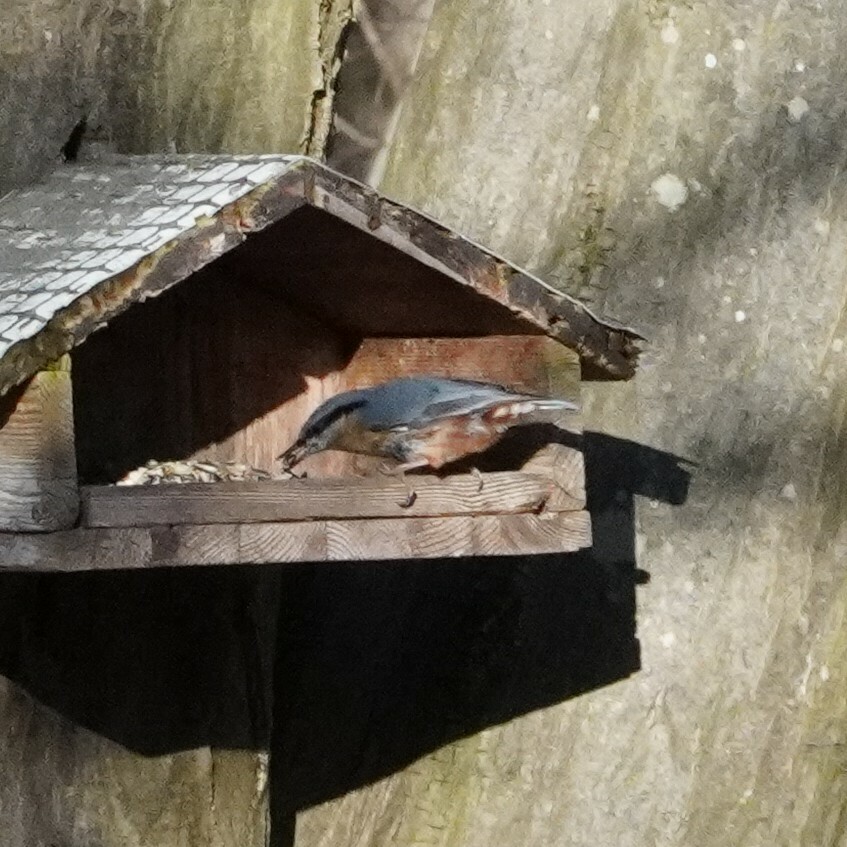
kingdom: Animalia
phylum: Chordata
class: Aves
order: Passeriformes
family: Sittidae
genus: Sitta
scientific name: Sitta europaea
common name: Eurasian nuthatch
